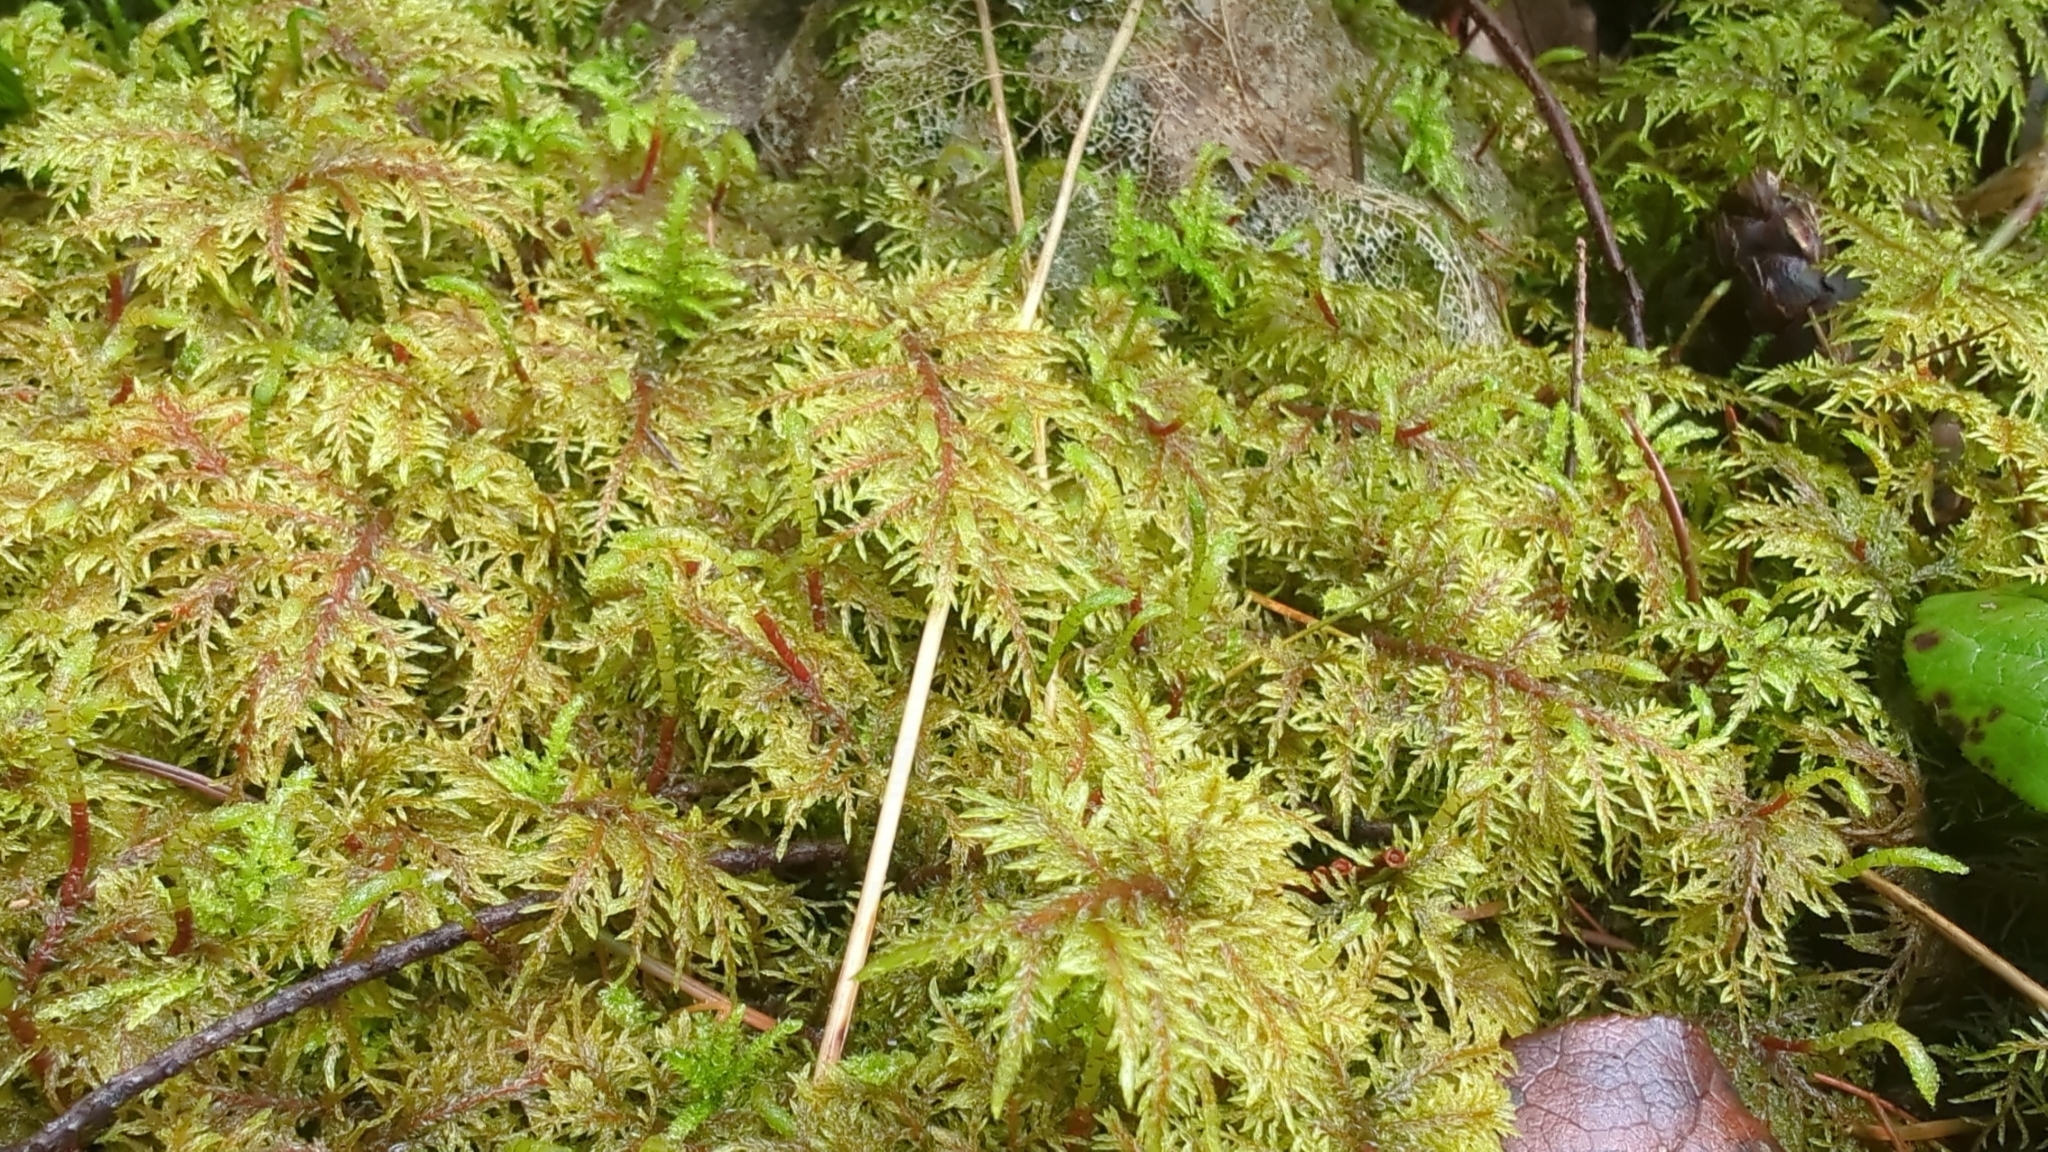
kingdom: Plantae
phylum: Bryophyta
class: Bryopsida
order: Hypnales
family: Hylocomiaceae
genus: Hylocomium
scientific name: Hylocomium splendens
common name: Stairstep moss
